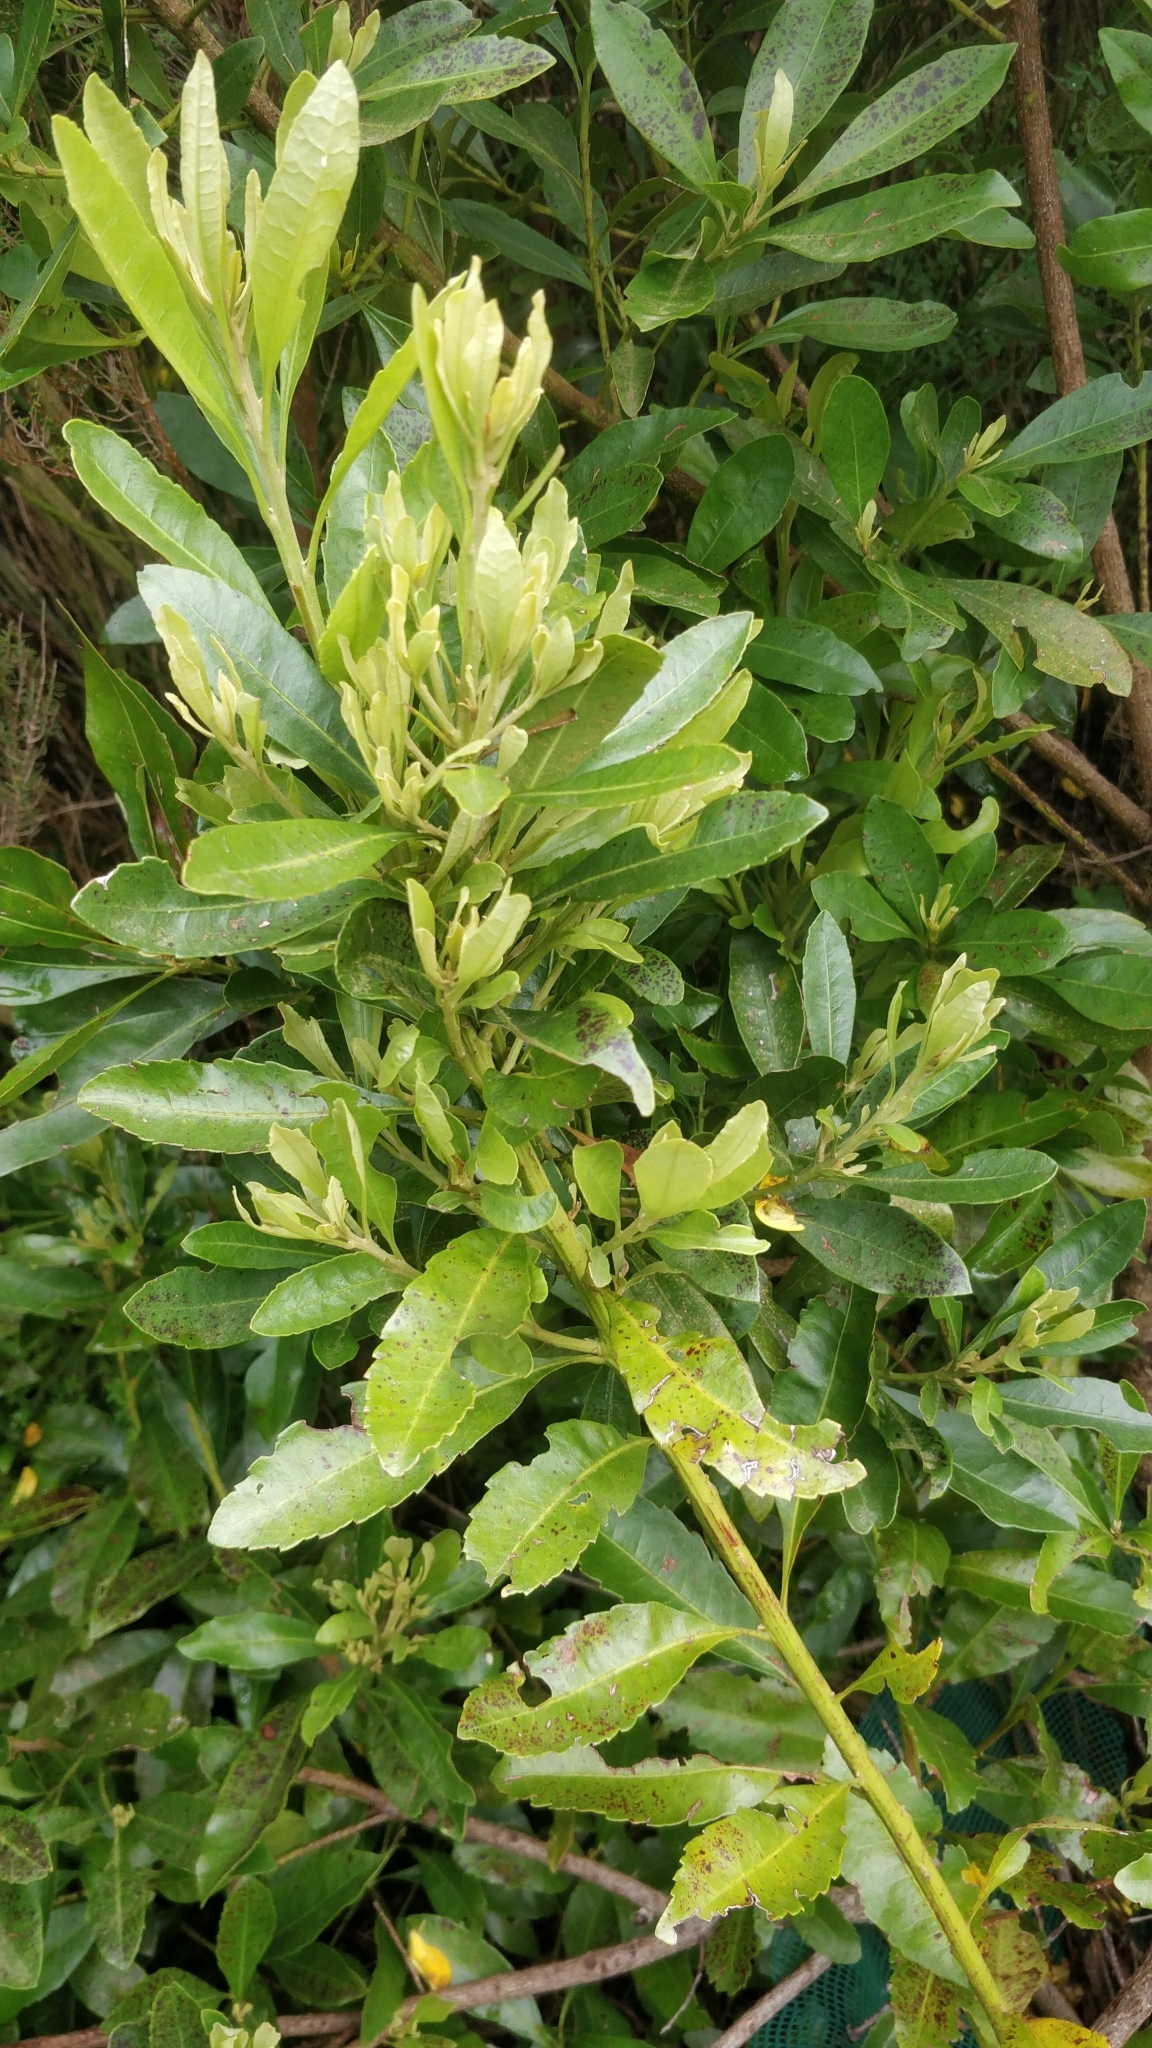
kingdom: Plantae
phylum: Tracheophyta
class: Magnoliopsida
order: Fagales
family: Myricaceae
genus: Morella
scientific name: Morella faya
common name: Firetree
